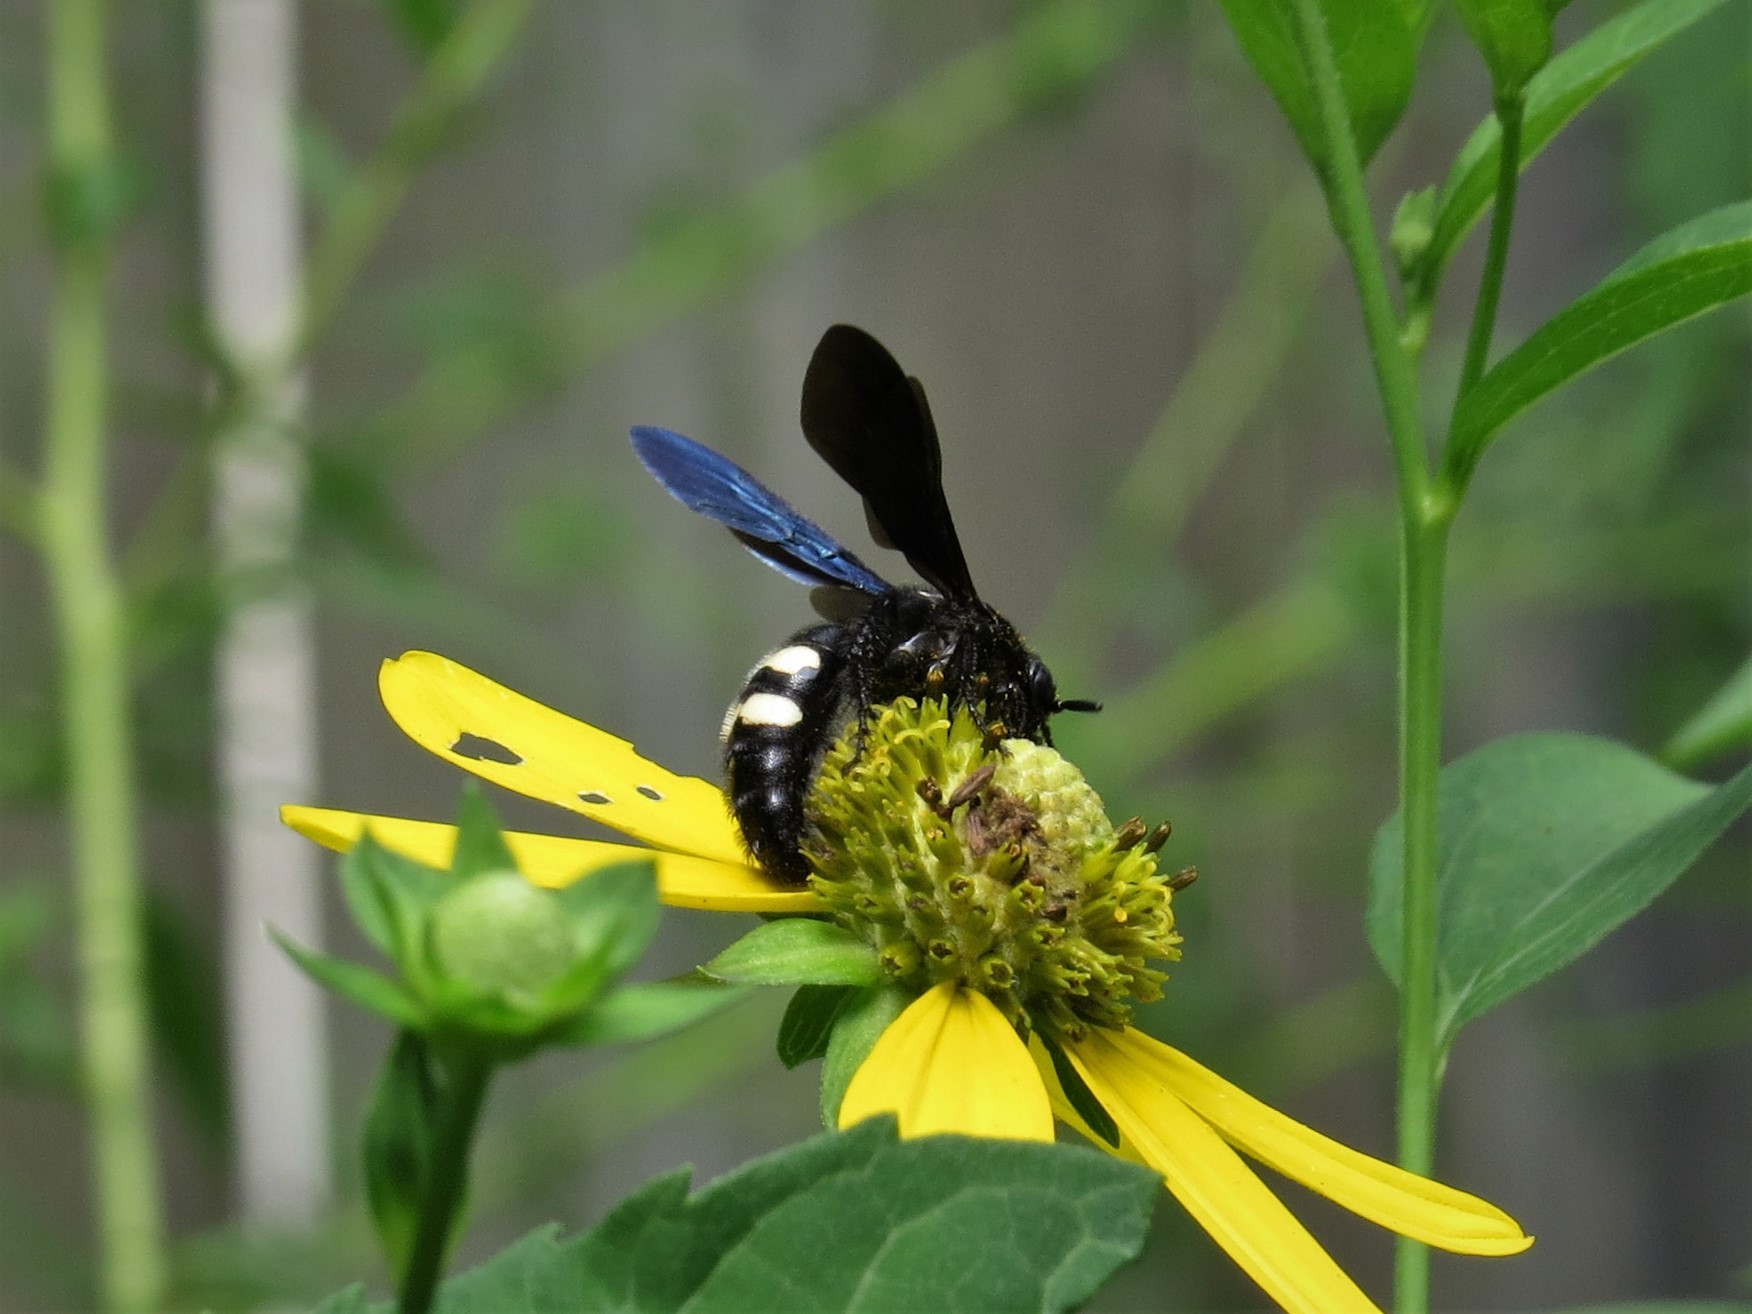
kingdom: Animalia
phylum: Arthropoda
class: Insecta
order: Hymenoptera
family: Scoliidae
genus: Scolia
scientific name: Scolia bicincta
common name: Double-banded scoliid wasp
